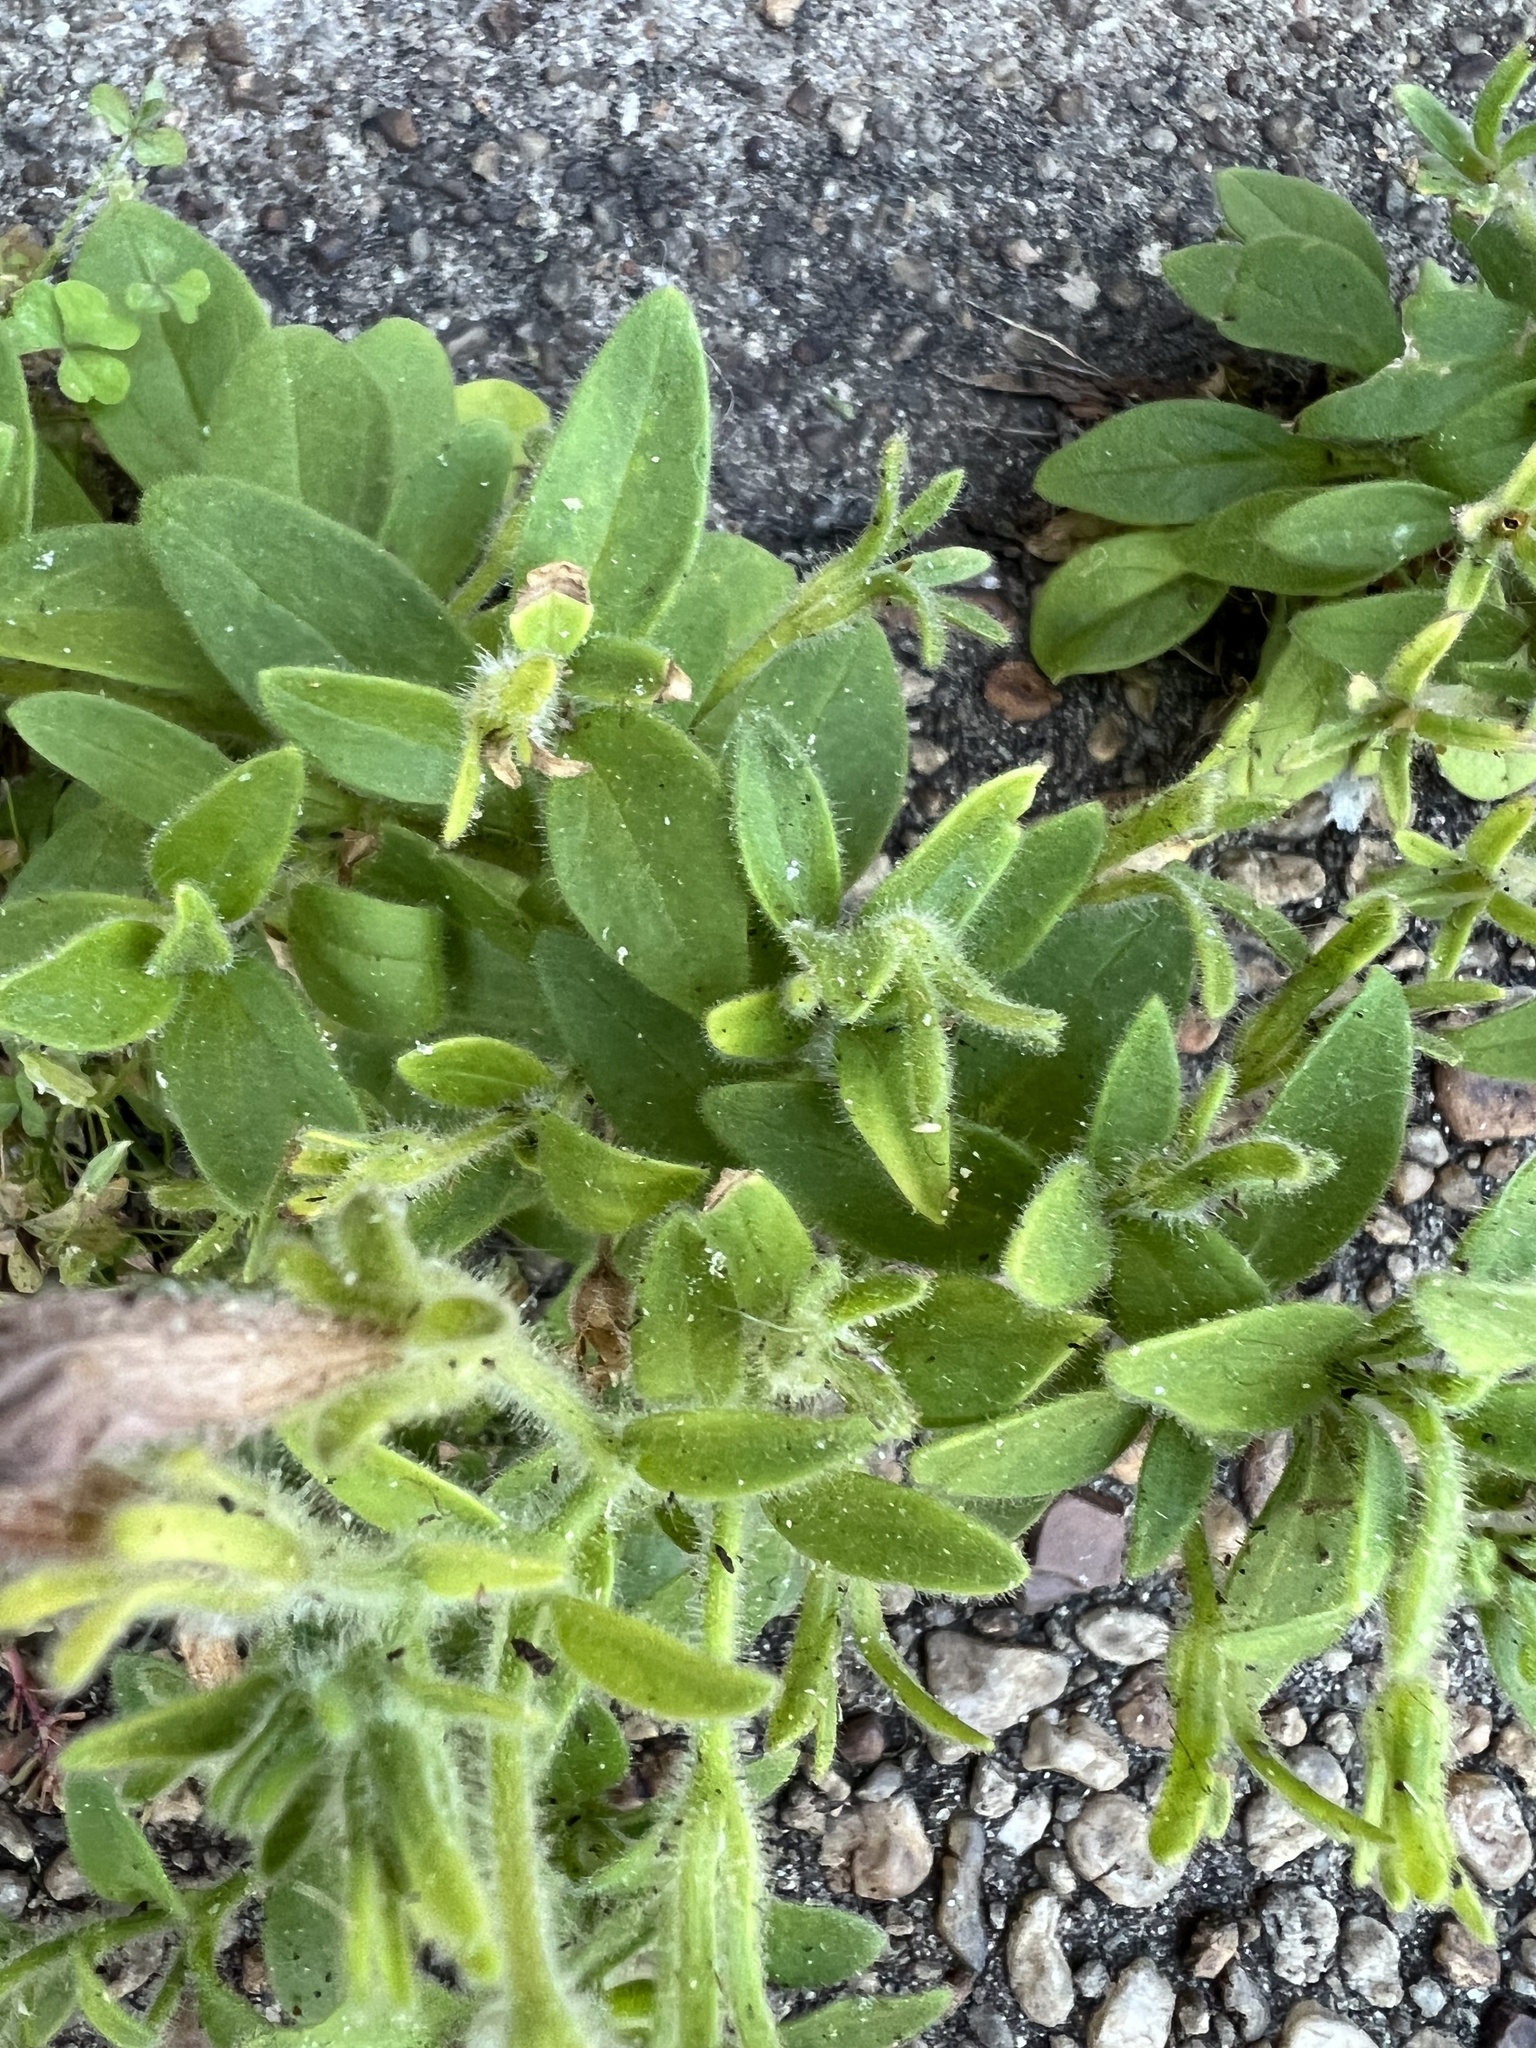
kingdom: Plantae
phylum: Tracheophyta
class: Magnoliopsida
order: Solanales
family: Solanaceae
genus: Petunia
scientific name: Petunia atkinsiana
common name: Petunia
